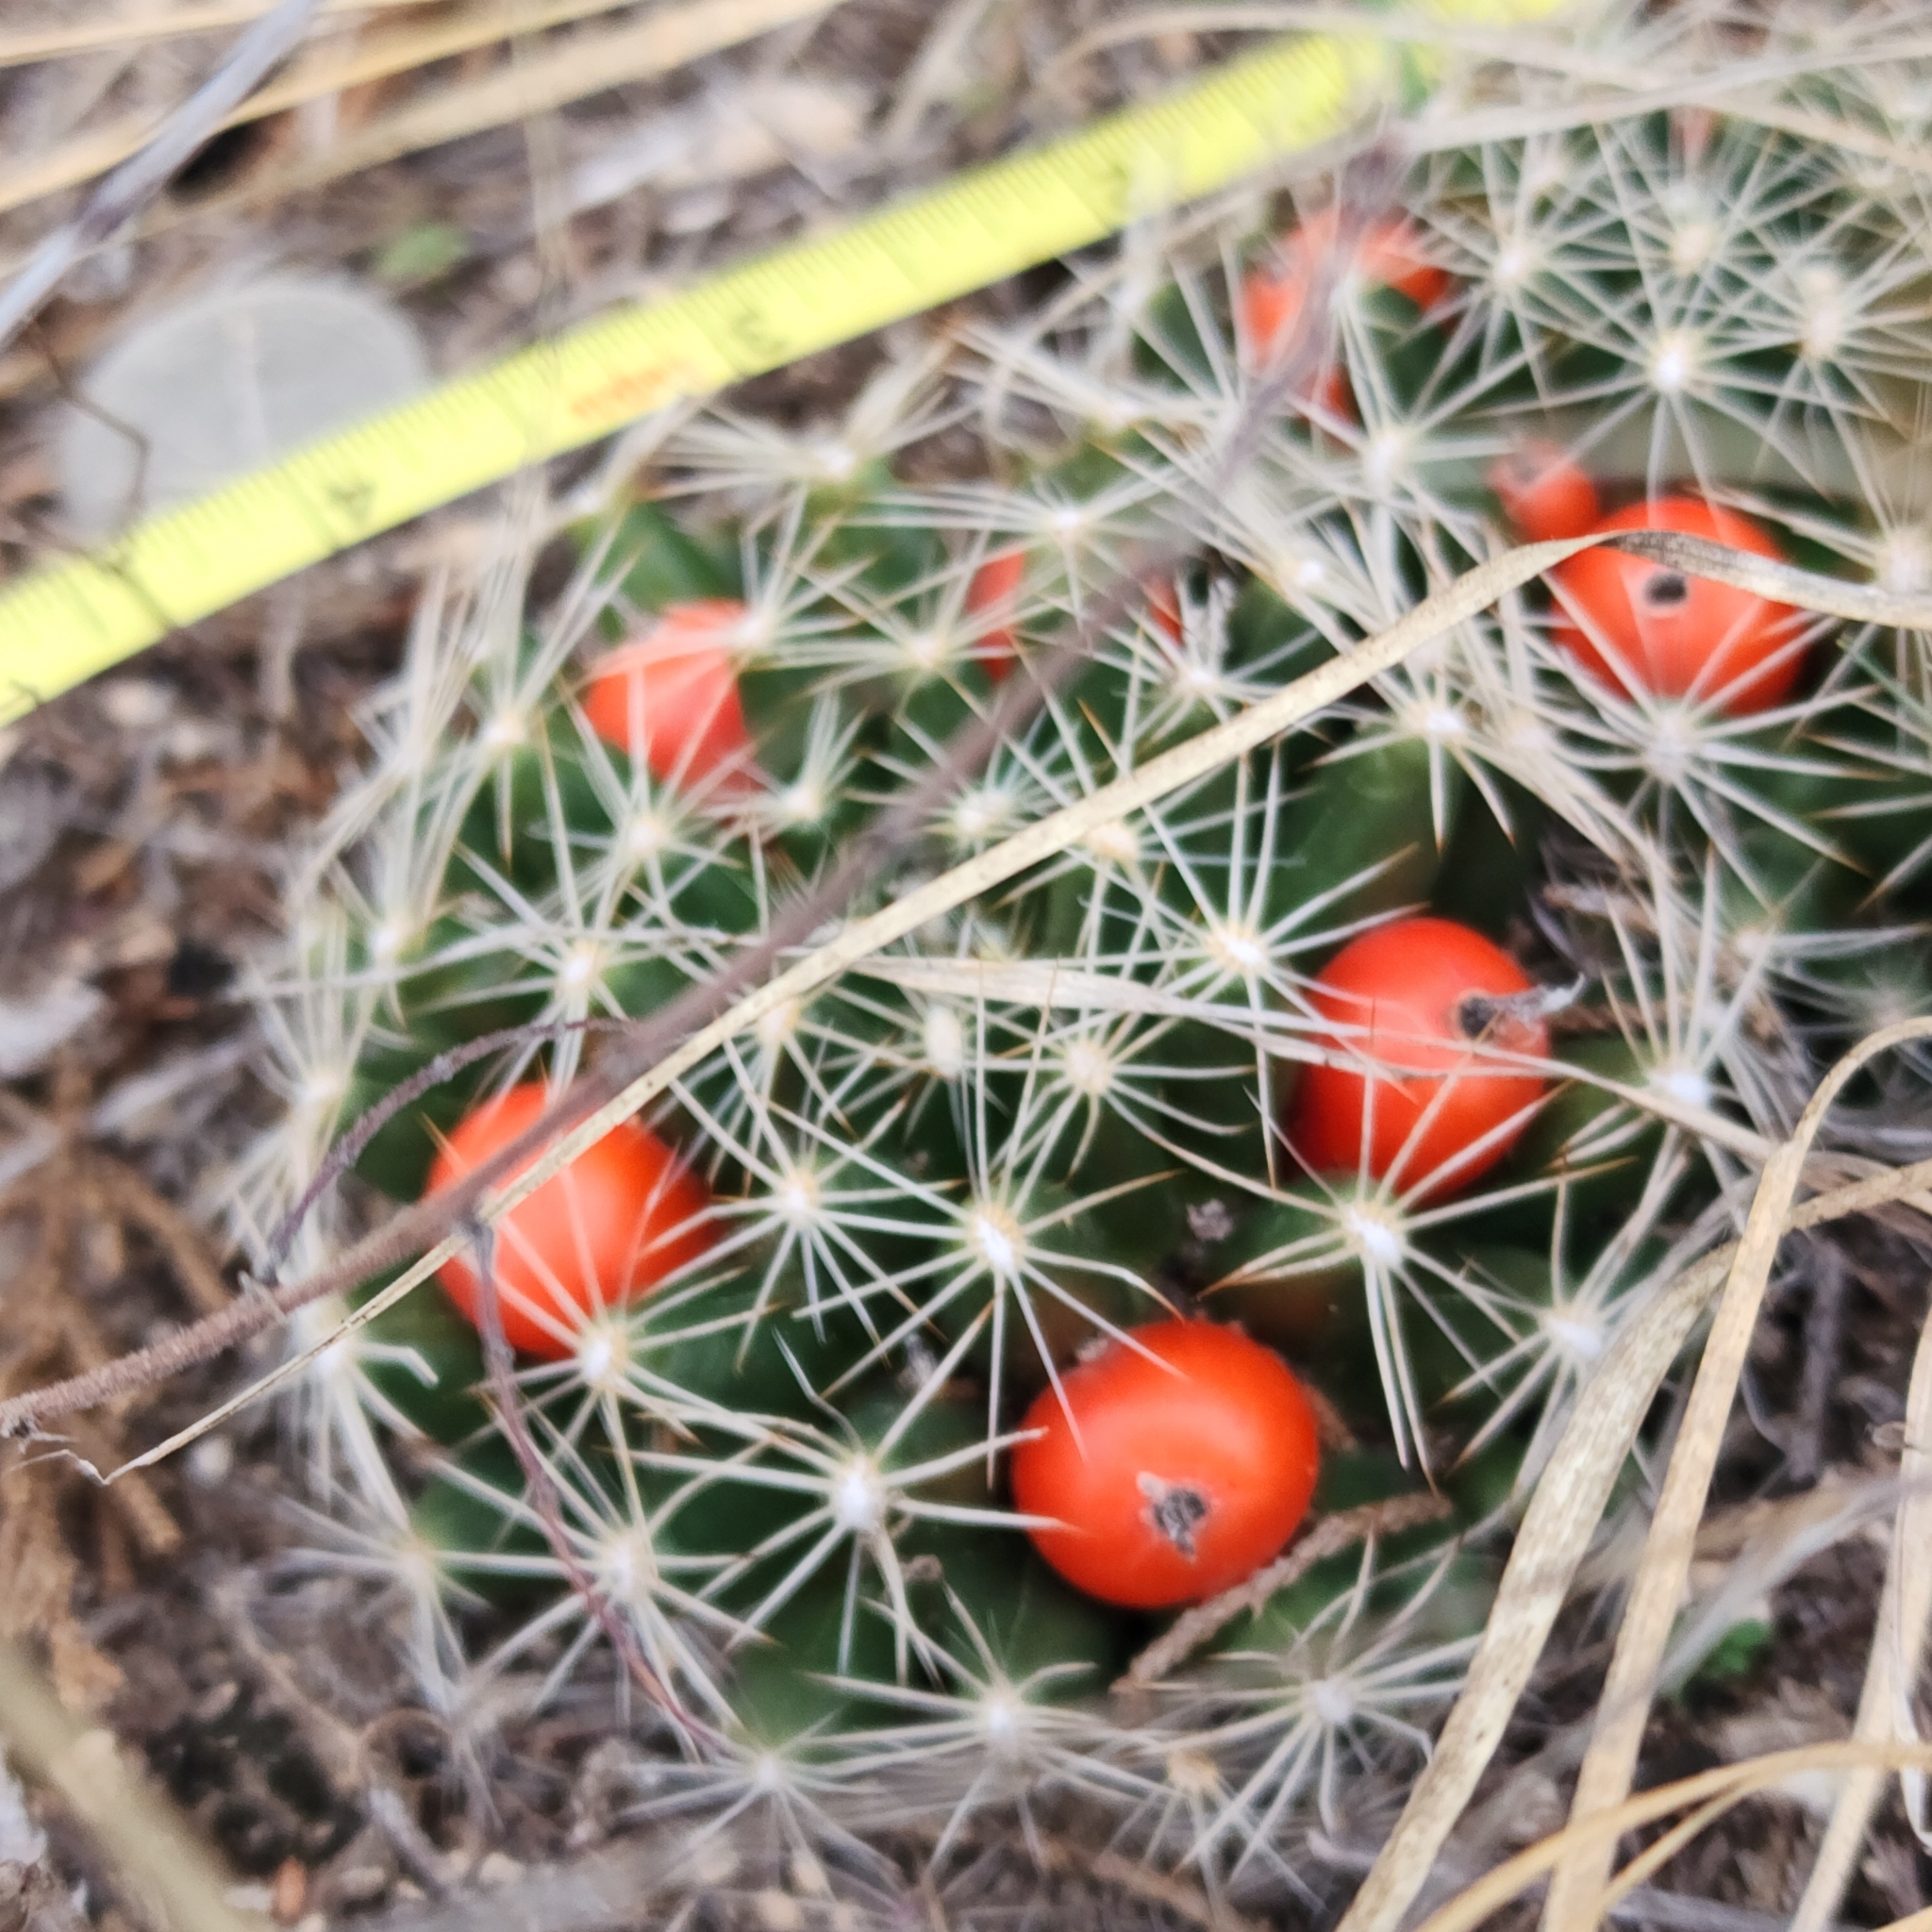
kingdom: Plantae
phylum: Tracheophyta
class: Magnoliopsida
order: Caryophyllales
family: Cactaceae
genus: Pelecyphora
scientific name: Pelecyphora missouriensis
